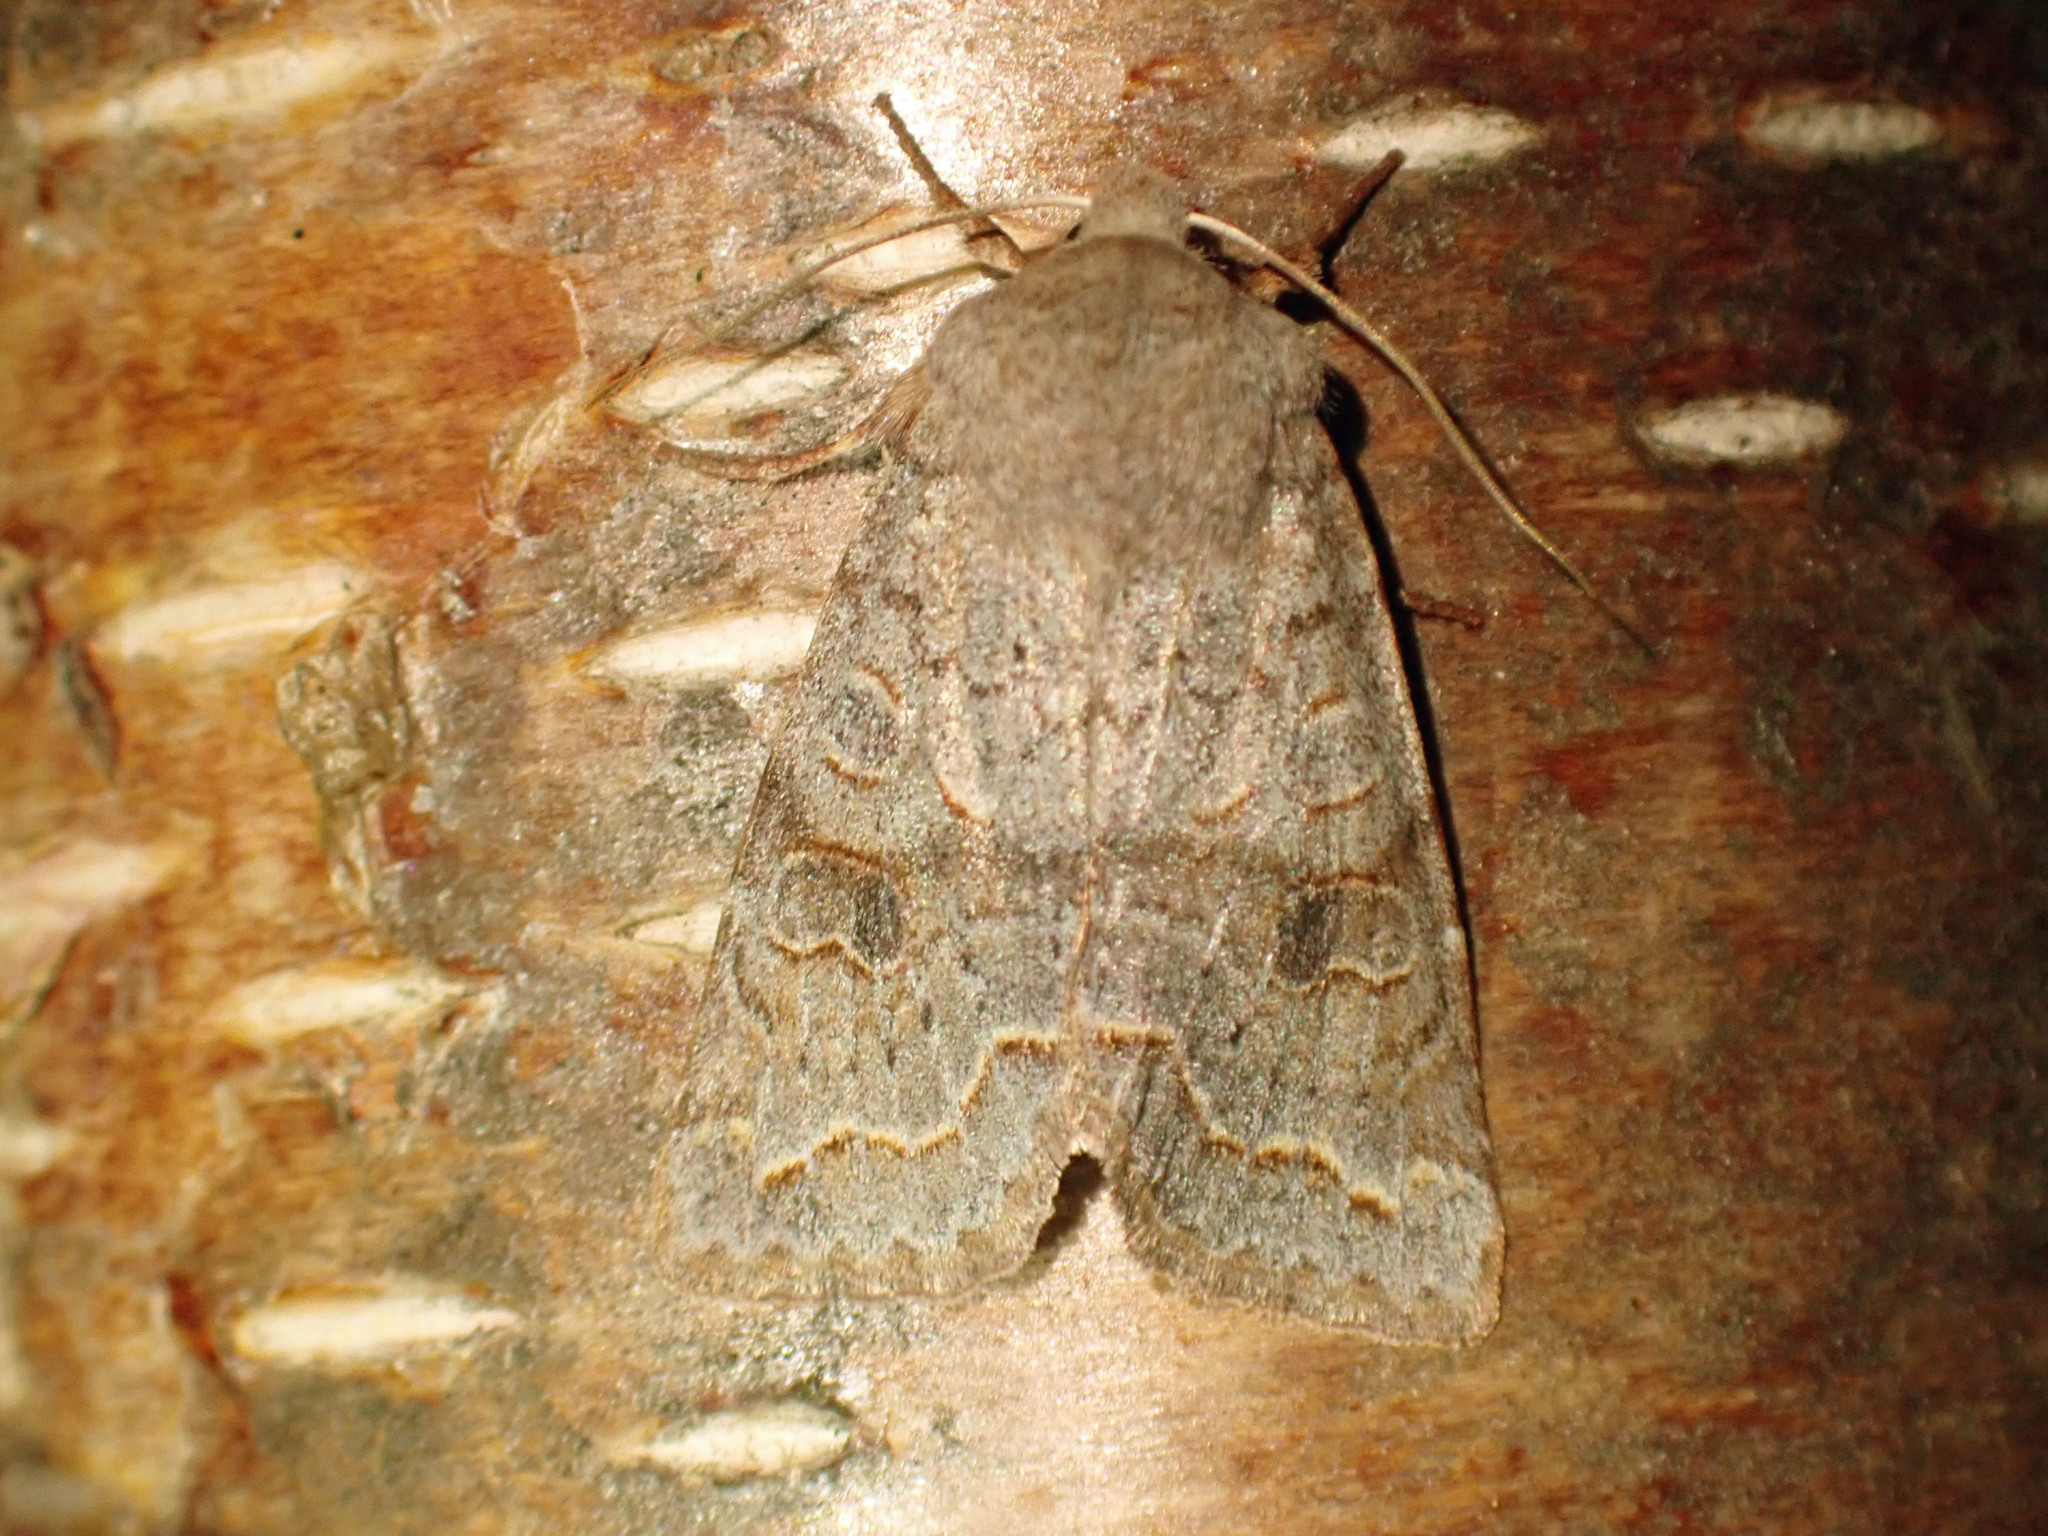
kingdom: Animalia
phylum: Arthropoda
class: Insecta
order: Lepidoptera
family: Noctuidae
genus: Orthosia
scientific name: Orthosia revicta
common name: Rusty whitesided caterpillar
